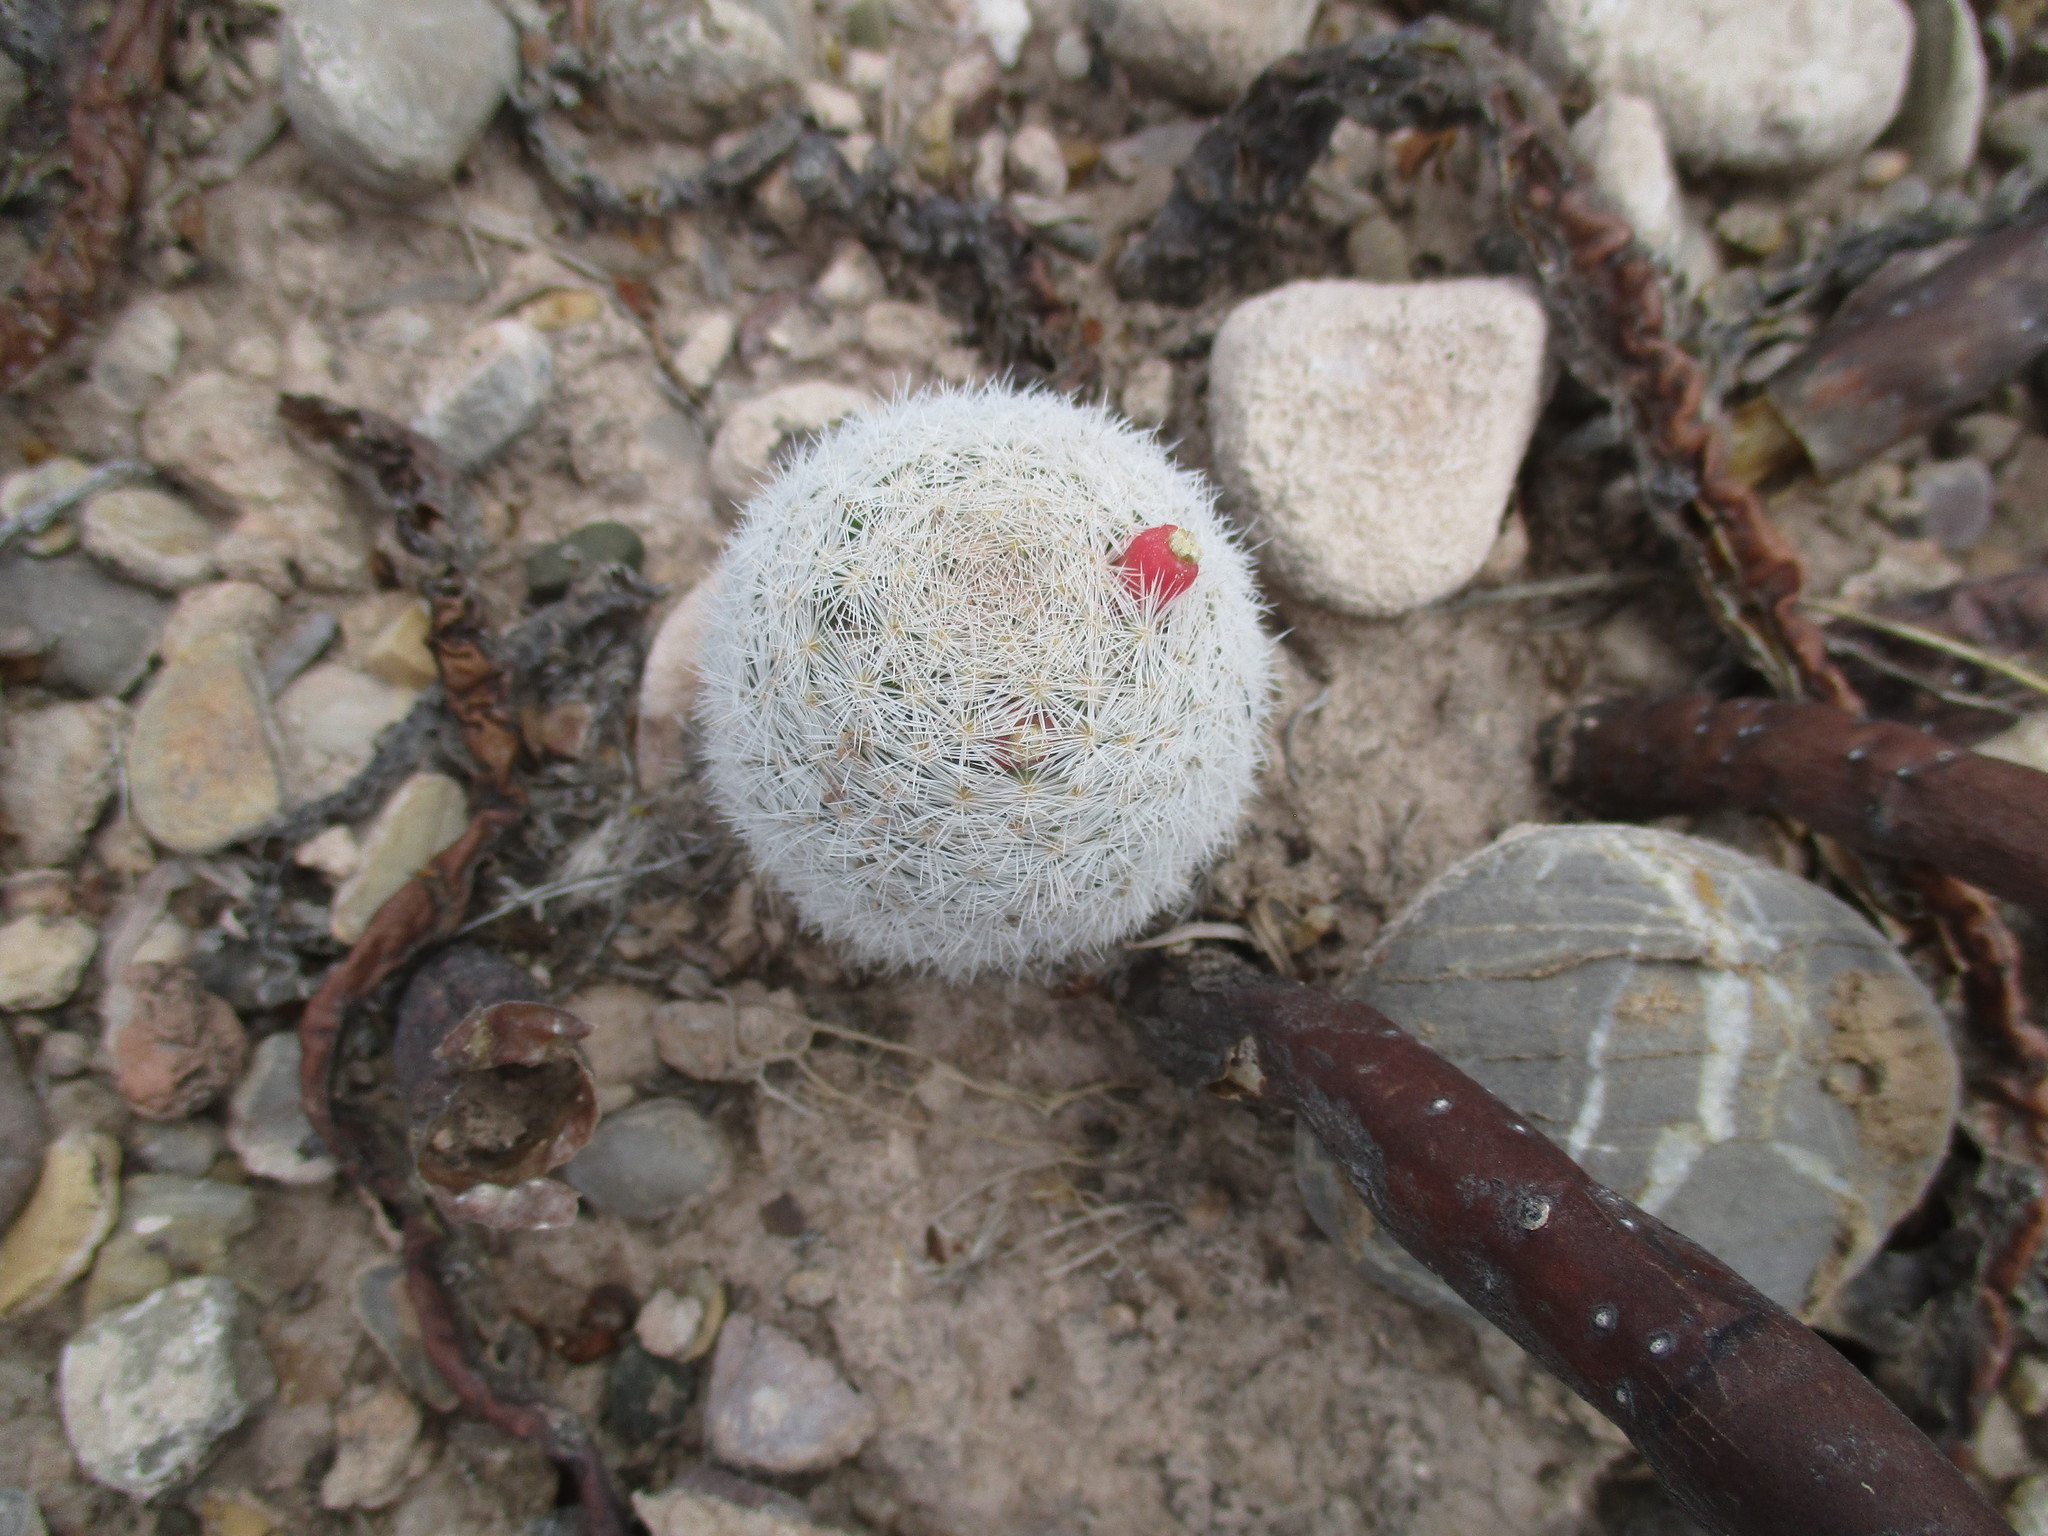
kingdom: Plantae
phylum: Tracheophyta
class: Magnoliopsida
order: Caryophyllales
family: Cactaceae
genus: Mammillaria
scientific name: Mammillaria lasiacantha
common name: Lace-spine nipple cactus
